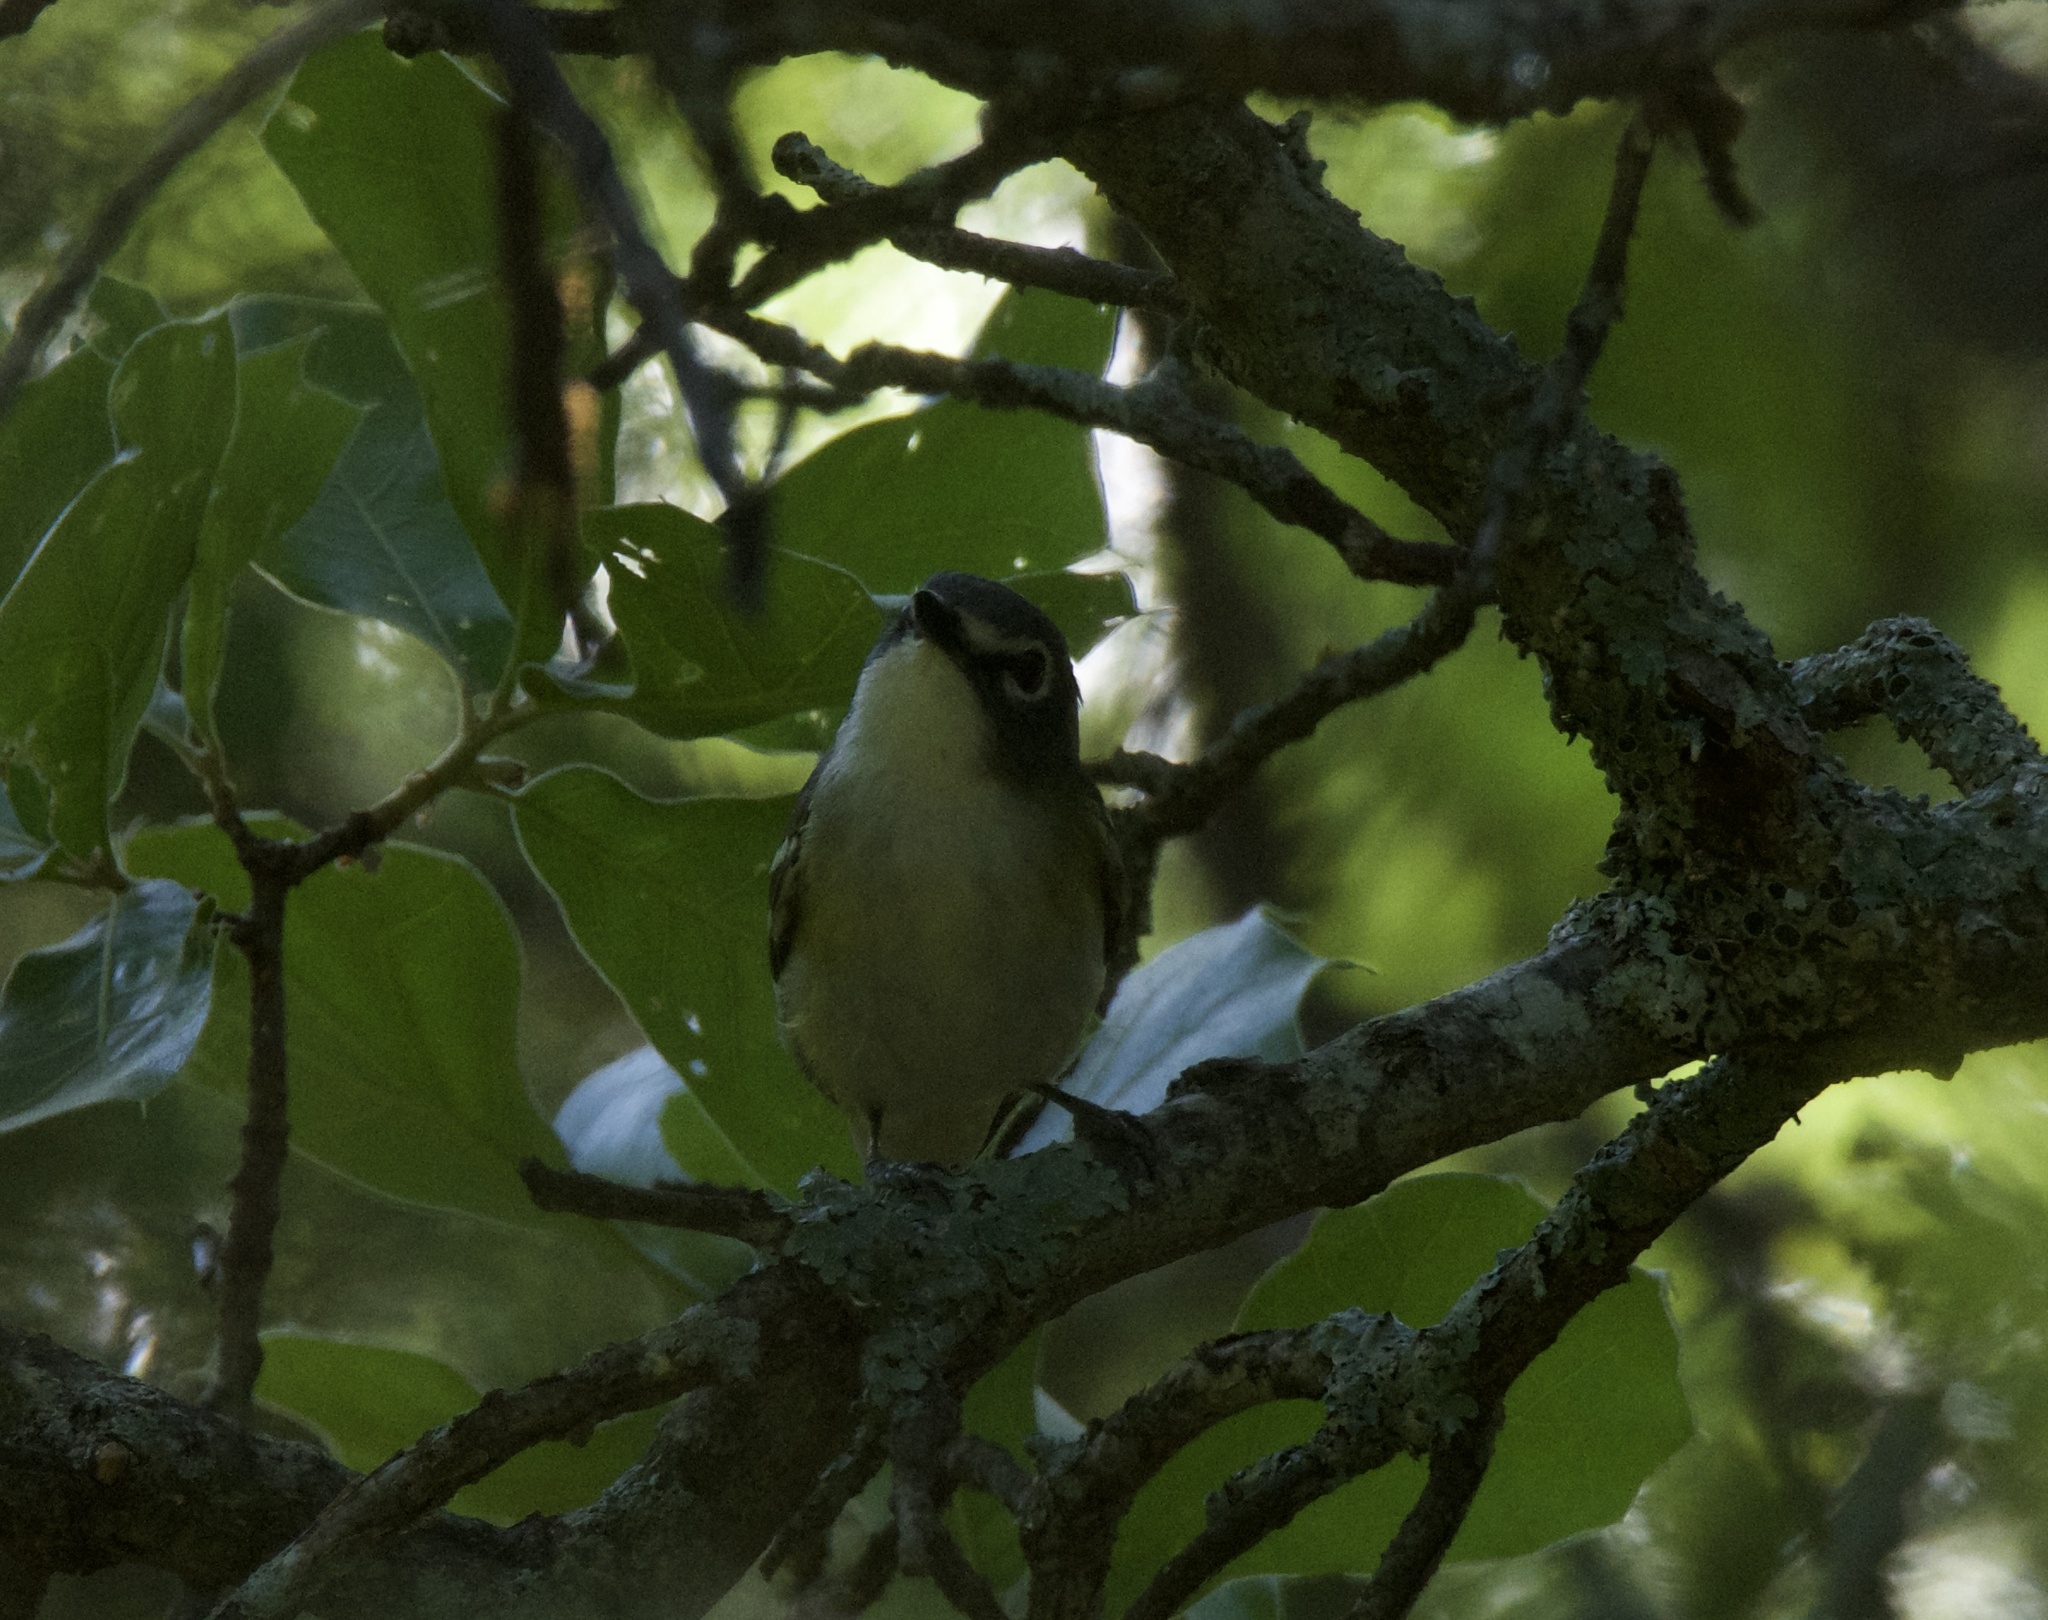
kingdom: Animalia
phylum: Chordata
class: Aves
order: Passeriformes
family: Vireonidae
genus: Vireo
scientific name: Vireo solitarius
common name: Blue-headed vireo
